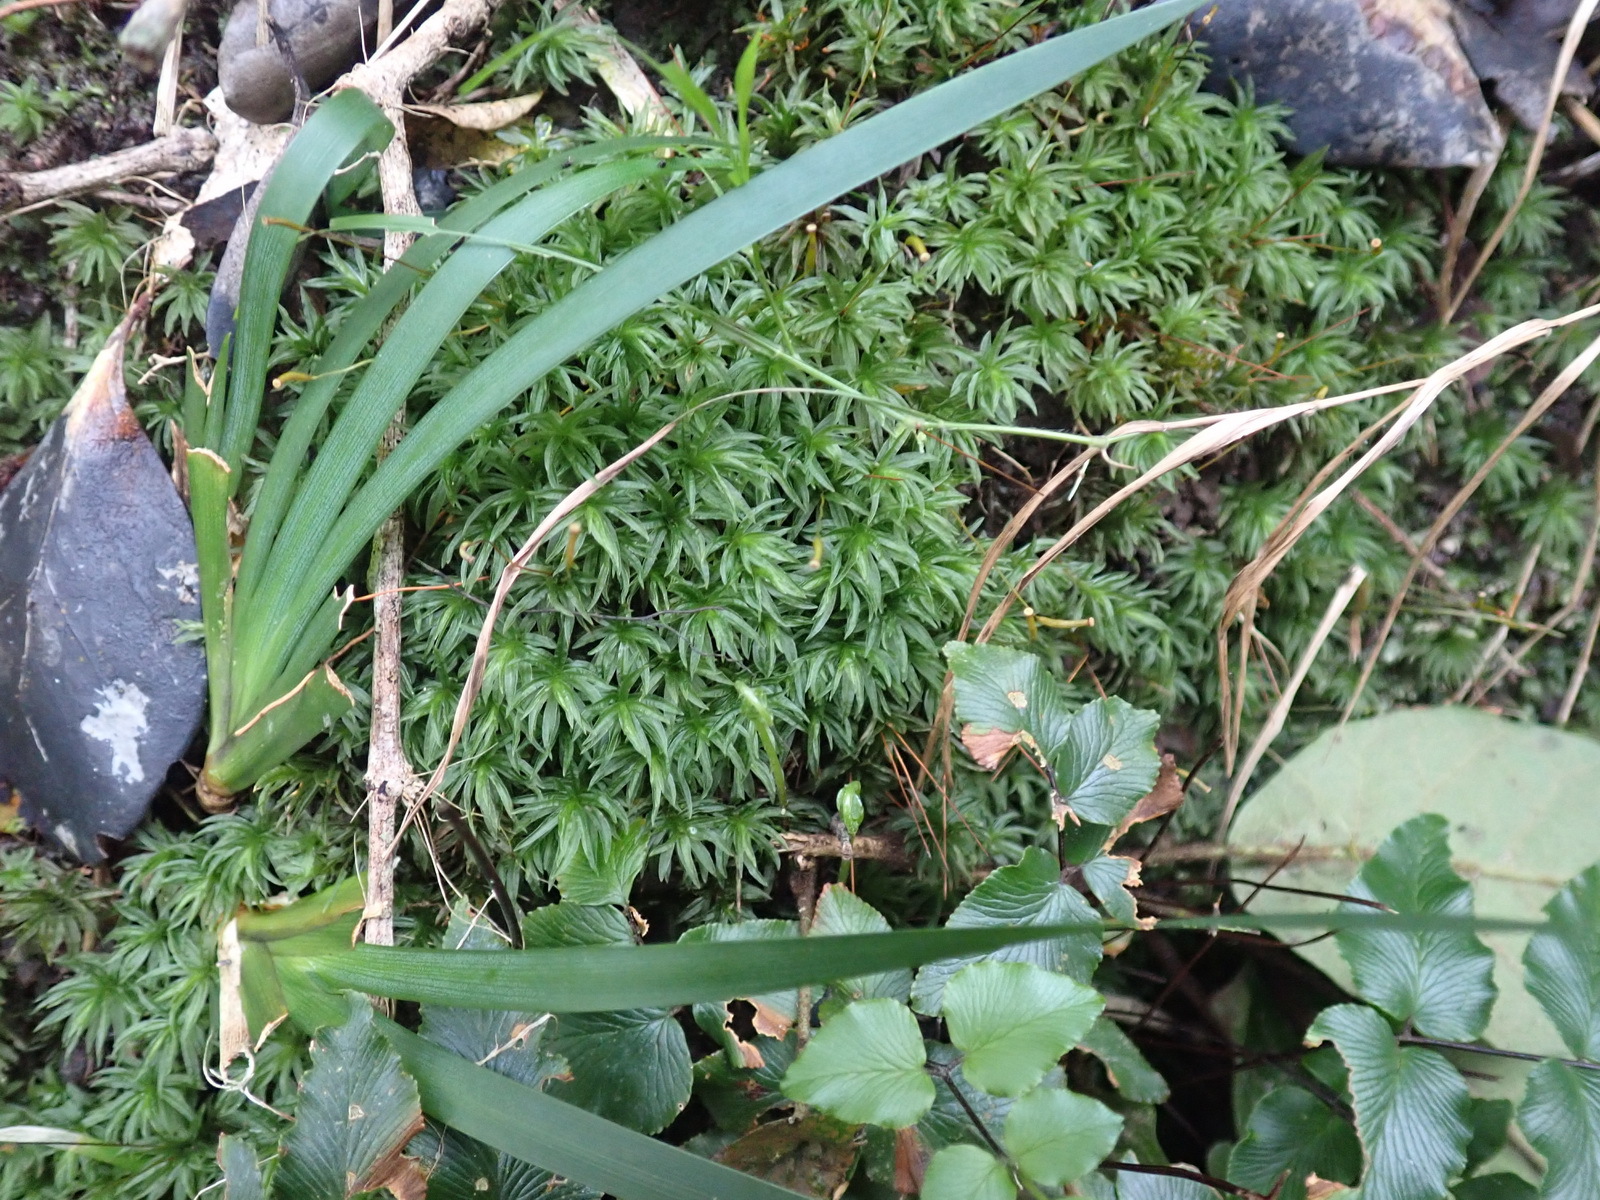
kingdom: Plantae
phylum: Bryophyta
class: Polytrichopsida
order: Polytrichales
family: Polytrichaceae
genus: Atrichum
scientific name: Atrichum androgynum
